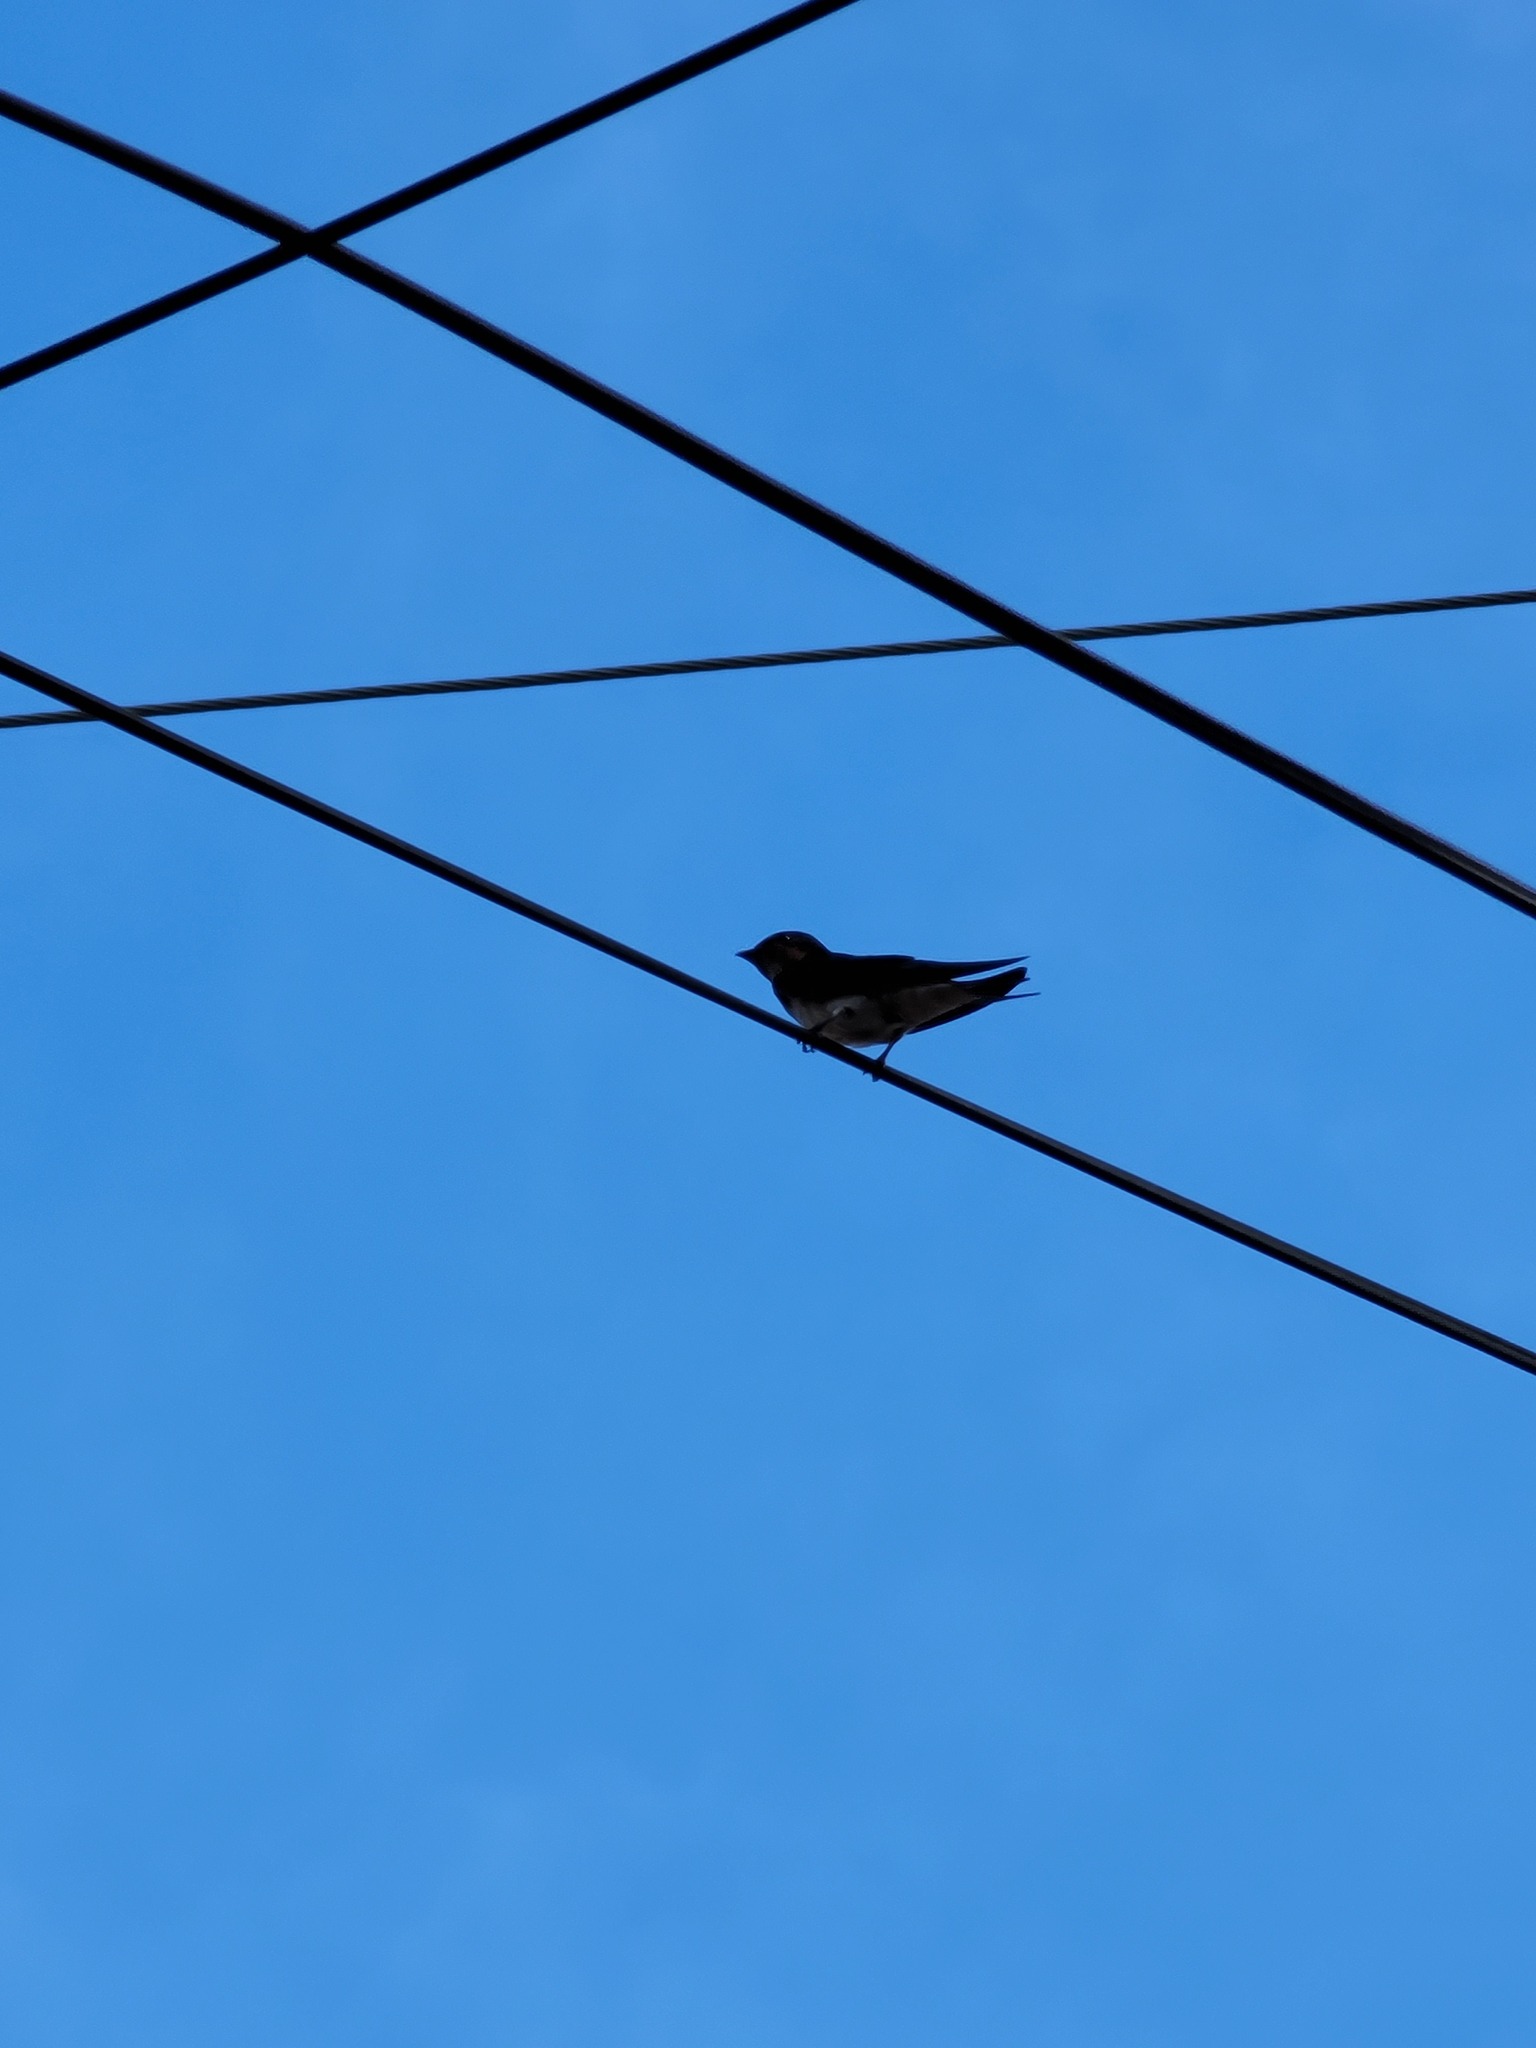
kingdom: Animalia
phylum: Chordata
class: Aves
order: Passeriformes
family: Hirundinidae
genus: Hirundo
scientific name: Hirundo rustica
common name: Barn swallow
